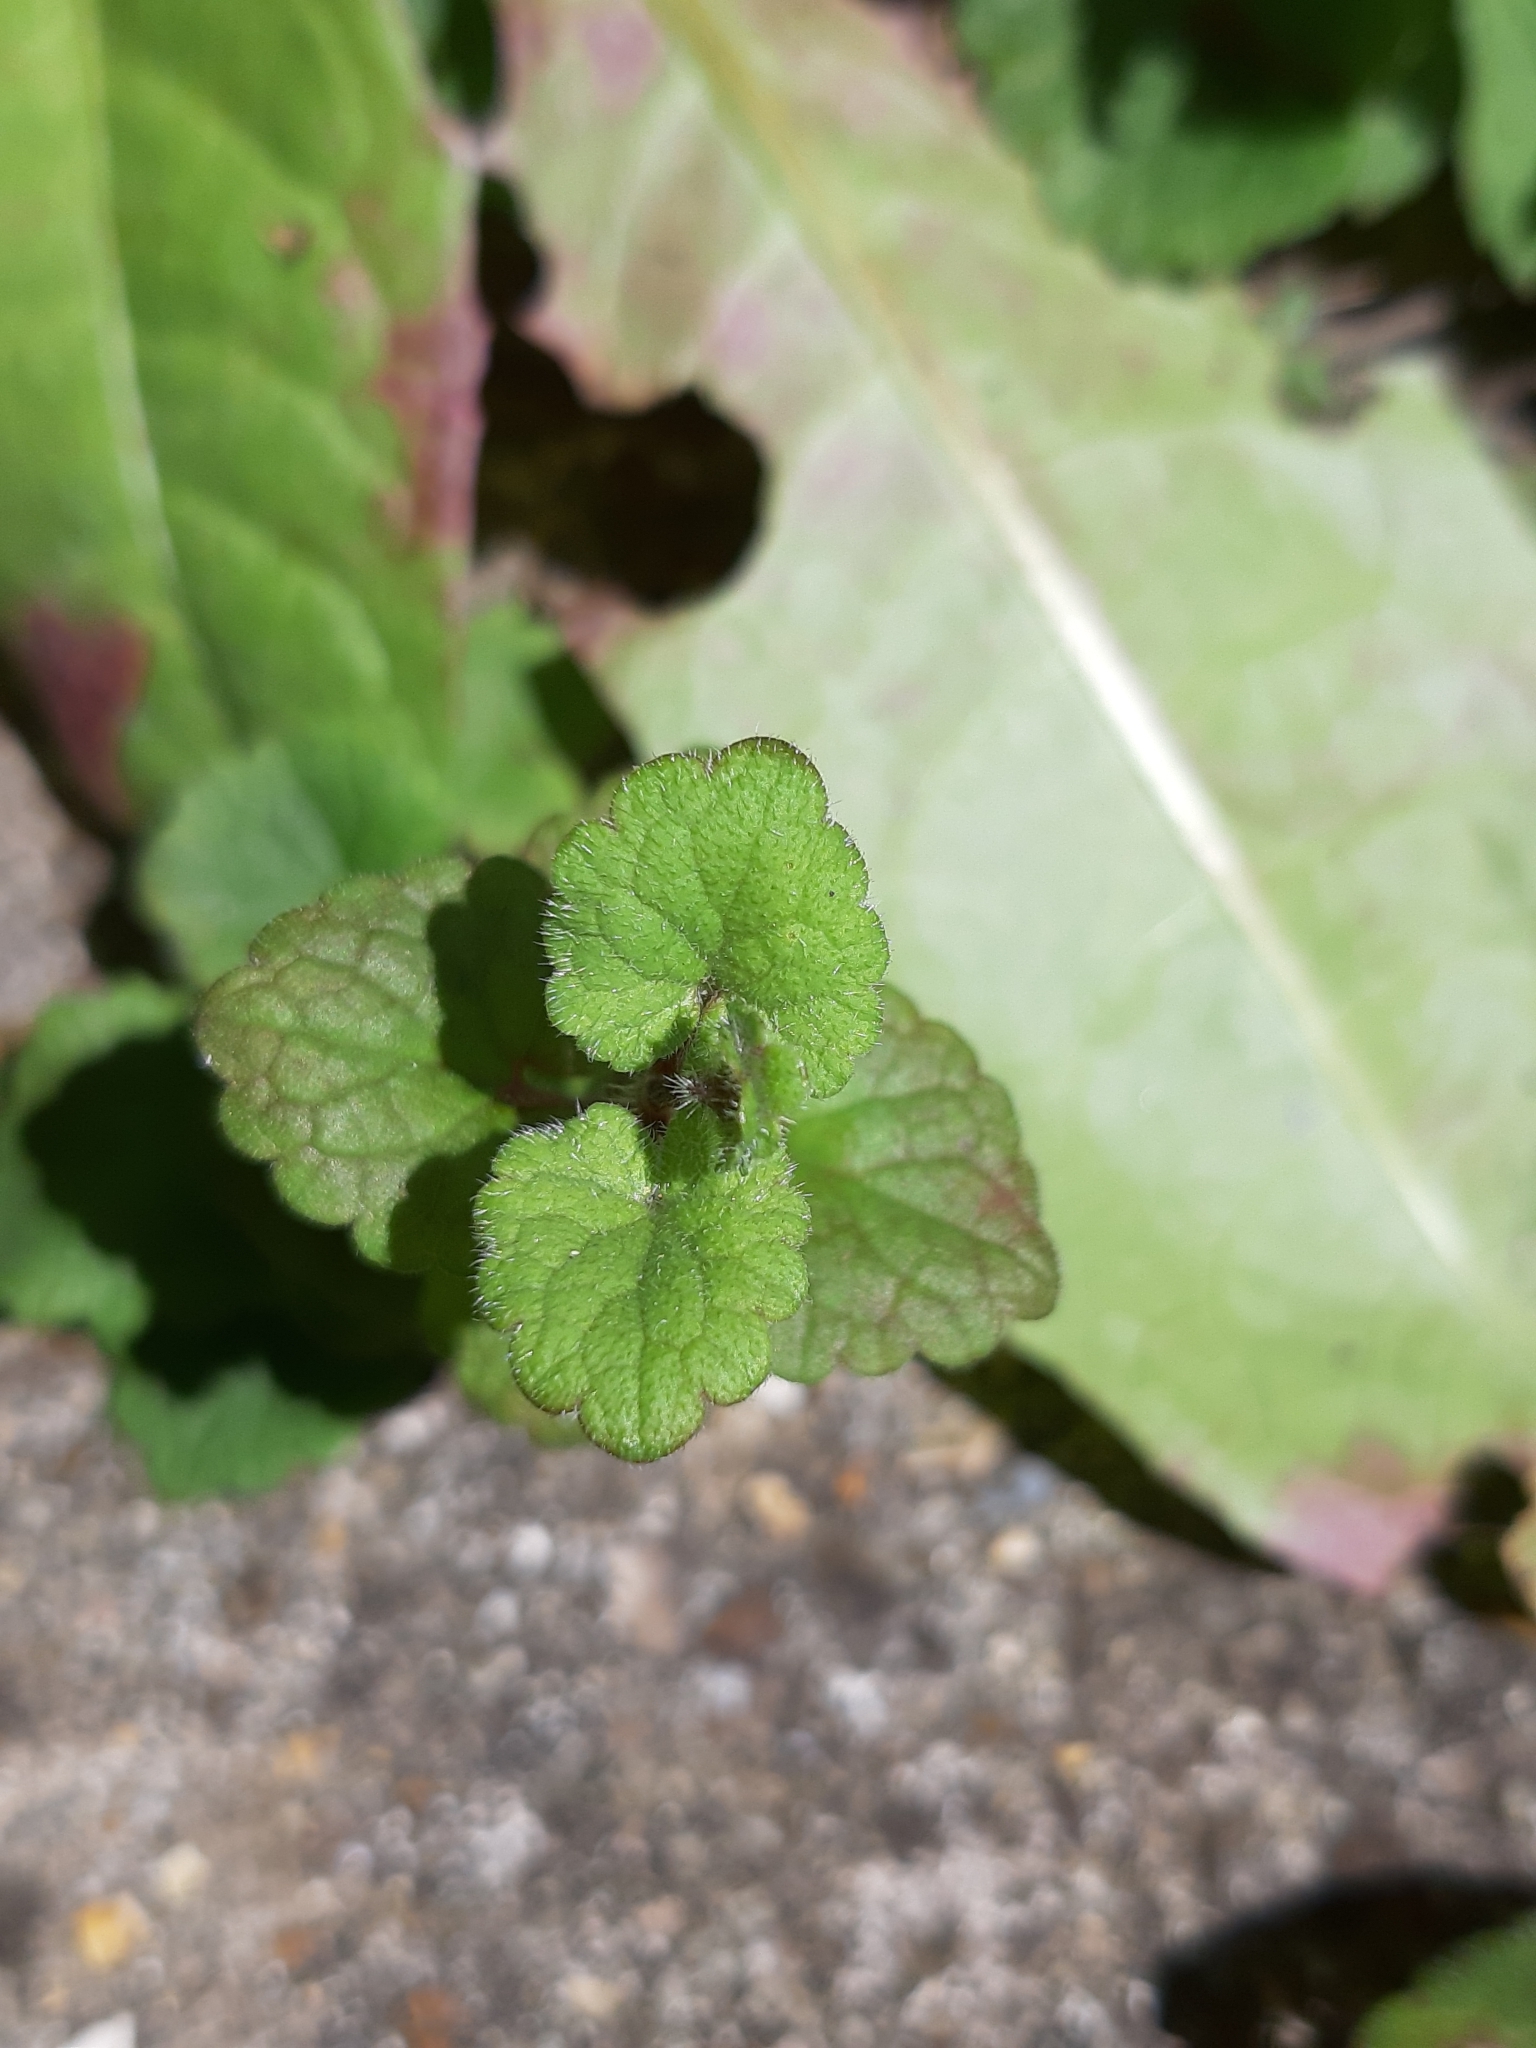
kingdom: Plantae
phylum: Tracheophyta
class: Magnoliopsida
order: Lamiales
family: Lamiaceae
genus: Glechoma
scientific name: Glechoma hederacea
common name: Ground ivy
